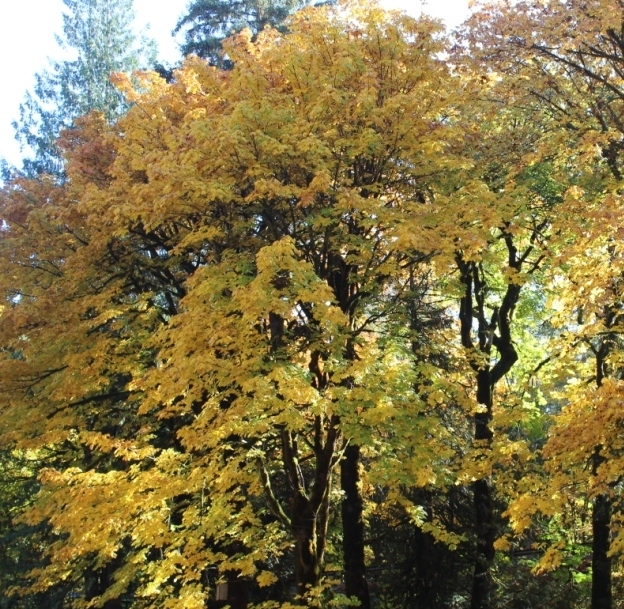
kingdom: Plantae
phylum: Tracheophyta
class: Magnoliopsida
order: Sapindales
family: Sapindaceae
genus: Acer
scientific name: Acer macrophyllum
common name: Oregon maple
